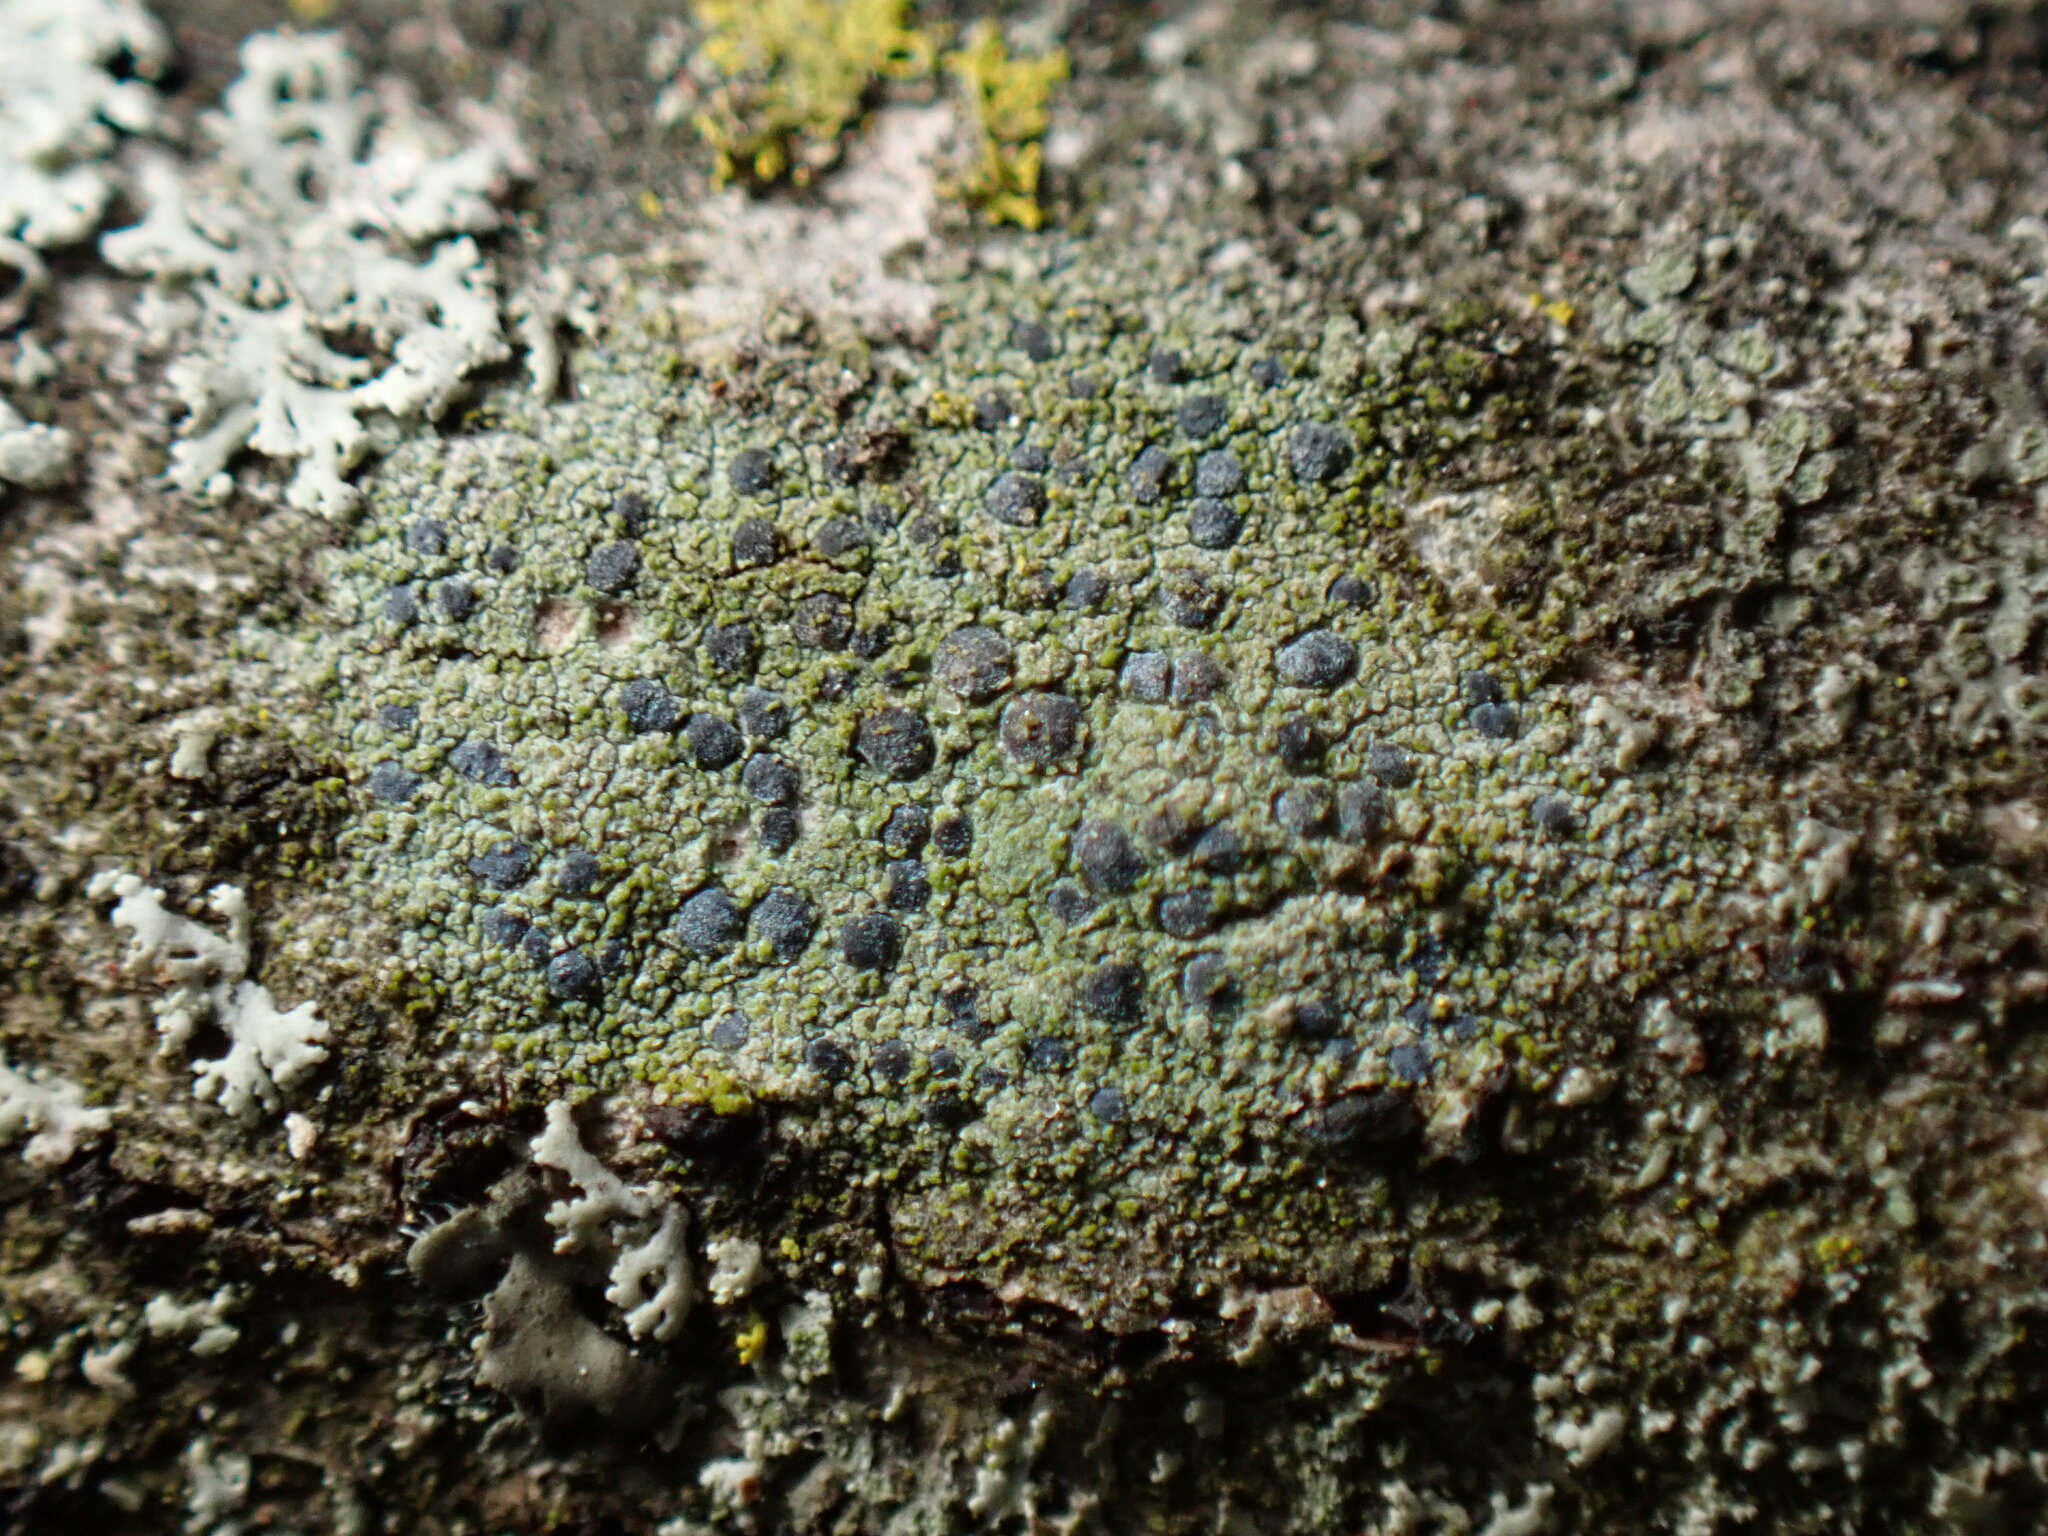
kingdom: Fungi
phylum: Ascomycota
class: Arthoniomycetes
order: Arthoniales
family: Chrysotrichaceae
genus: Chrysothrix
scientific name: Chrysothrix caesia
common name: Frosted comma lichen
